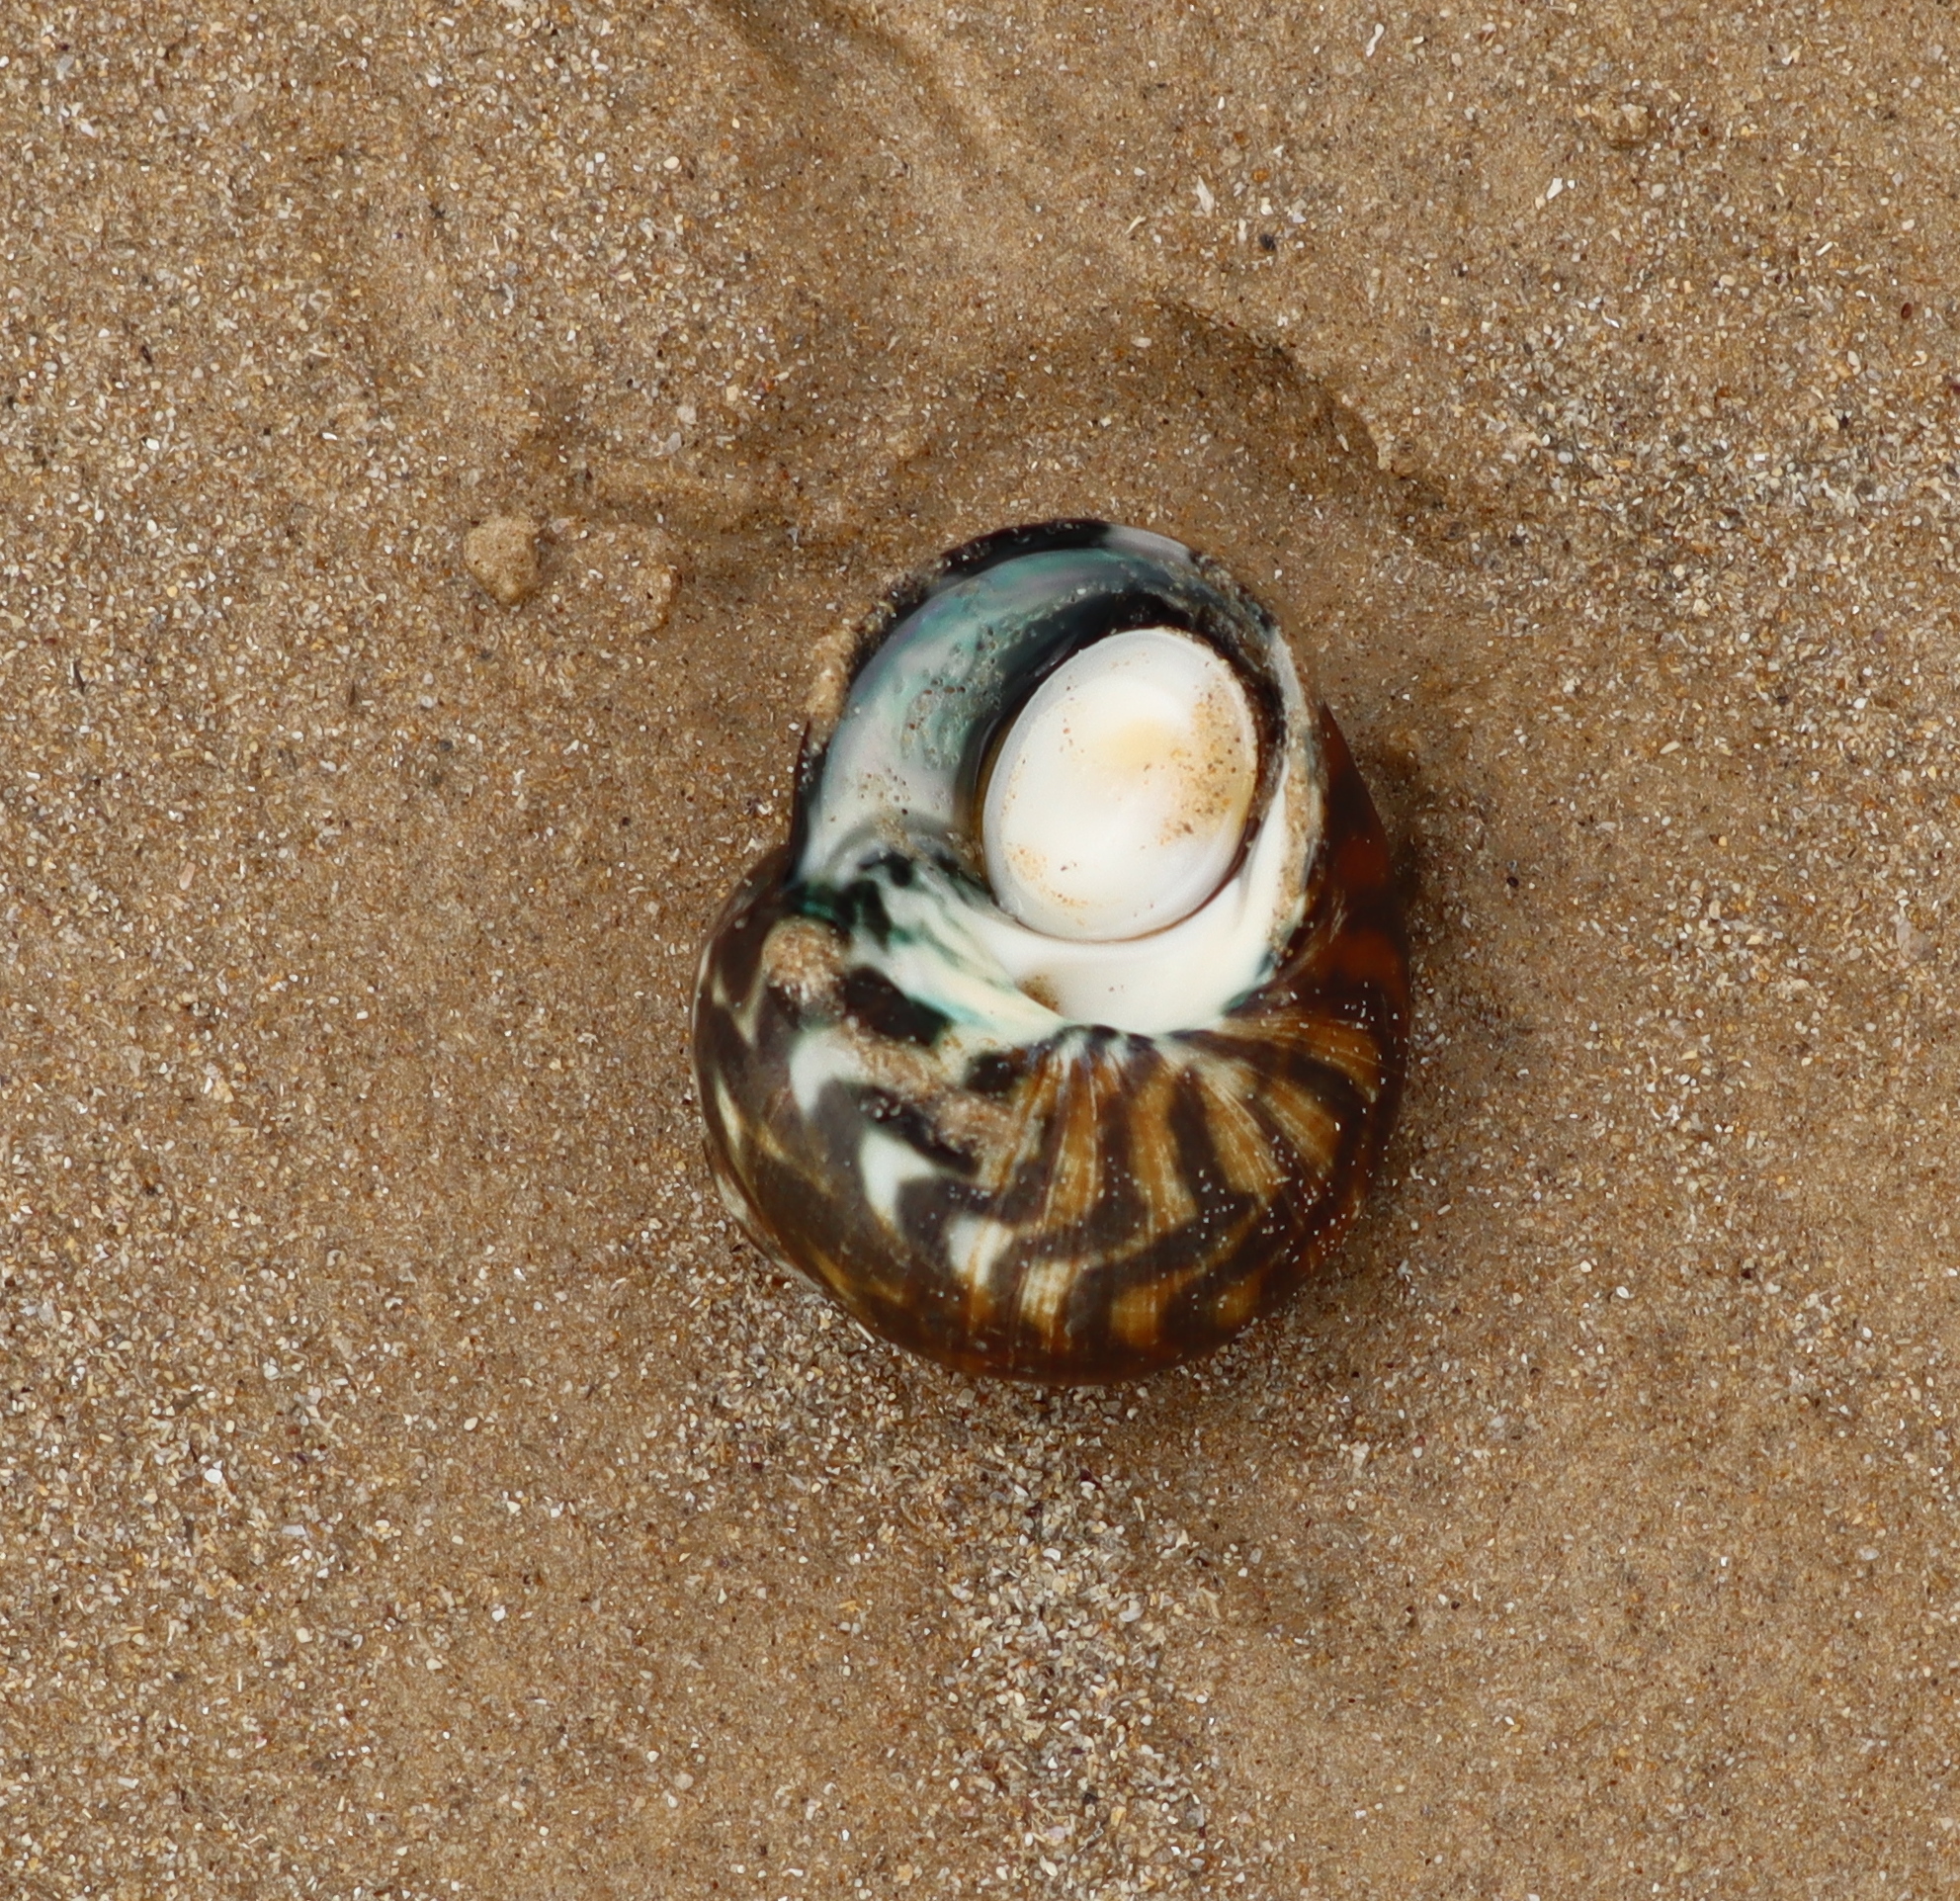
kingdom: Animalia
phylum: Mollusca
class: Gastropoda
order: Trochida
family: Turbinidae
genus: Lunella
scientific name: Lunella undulata
